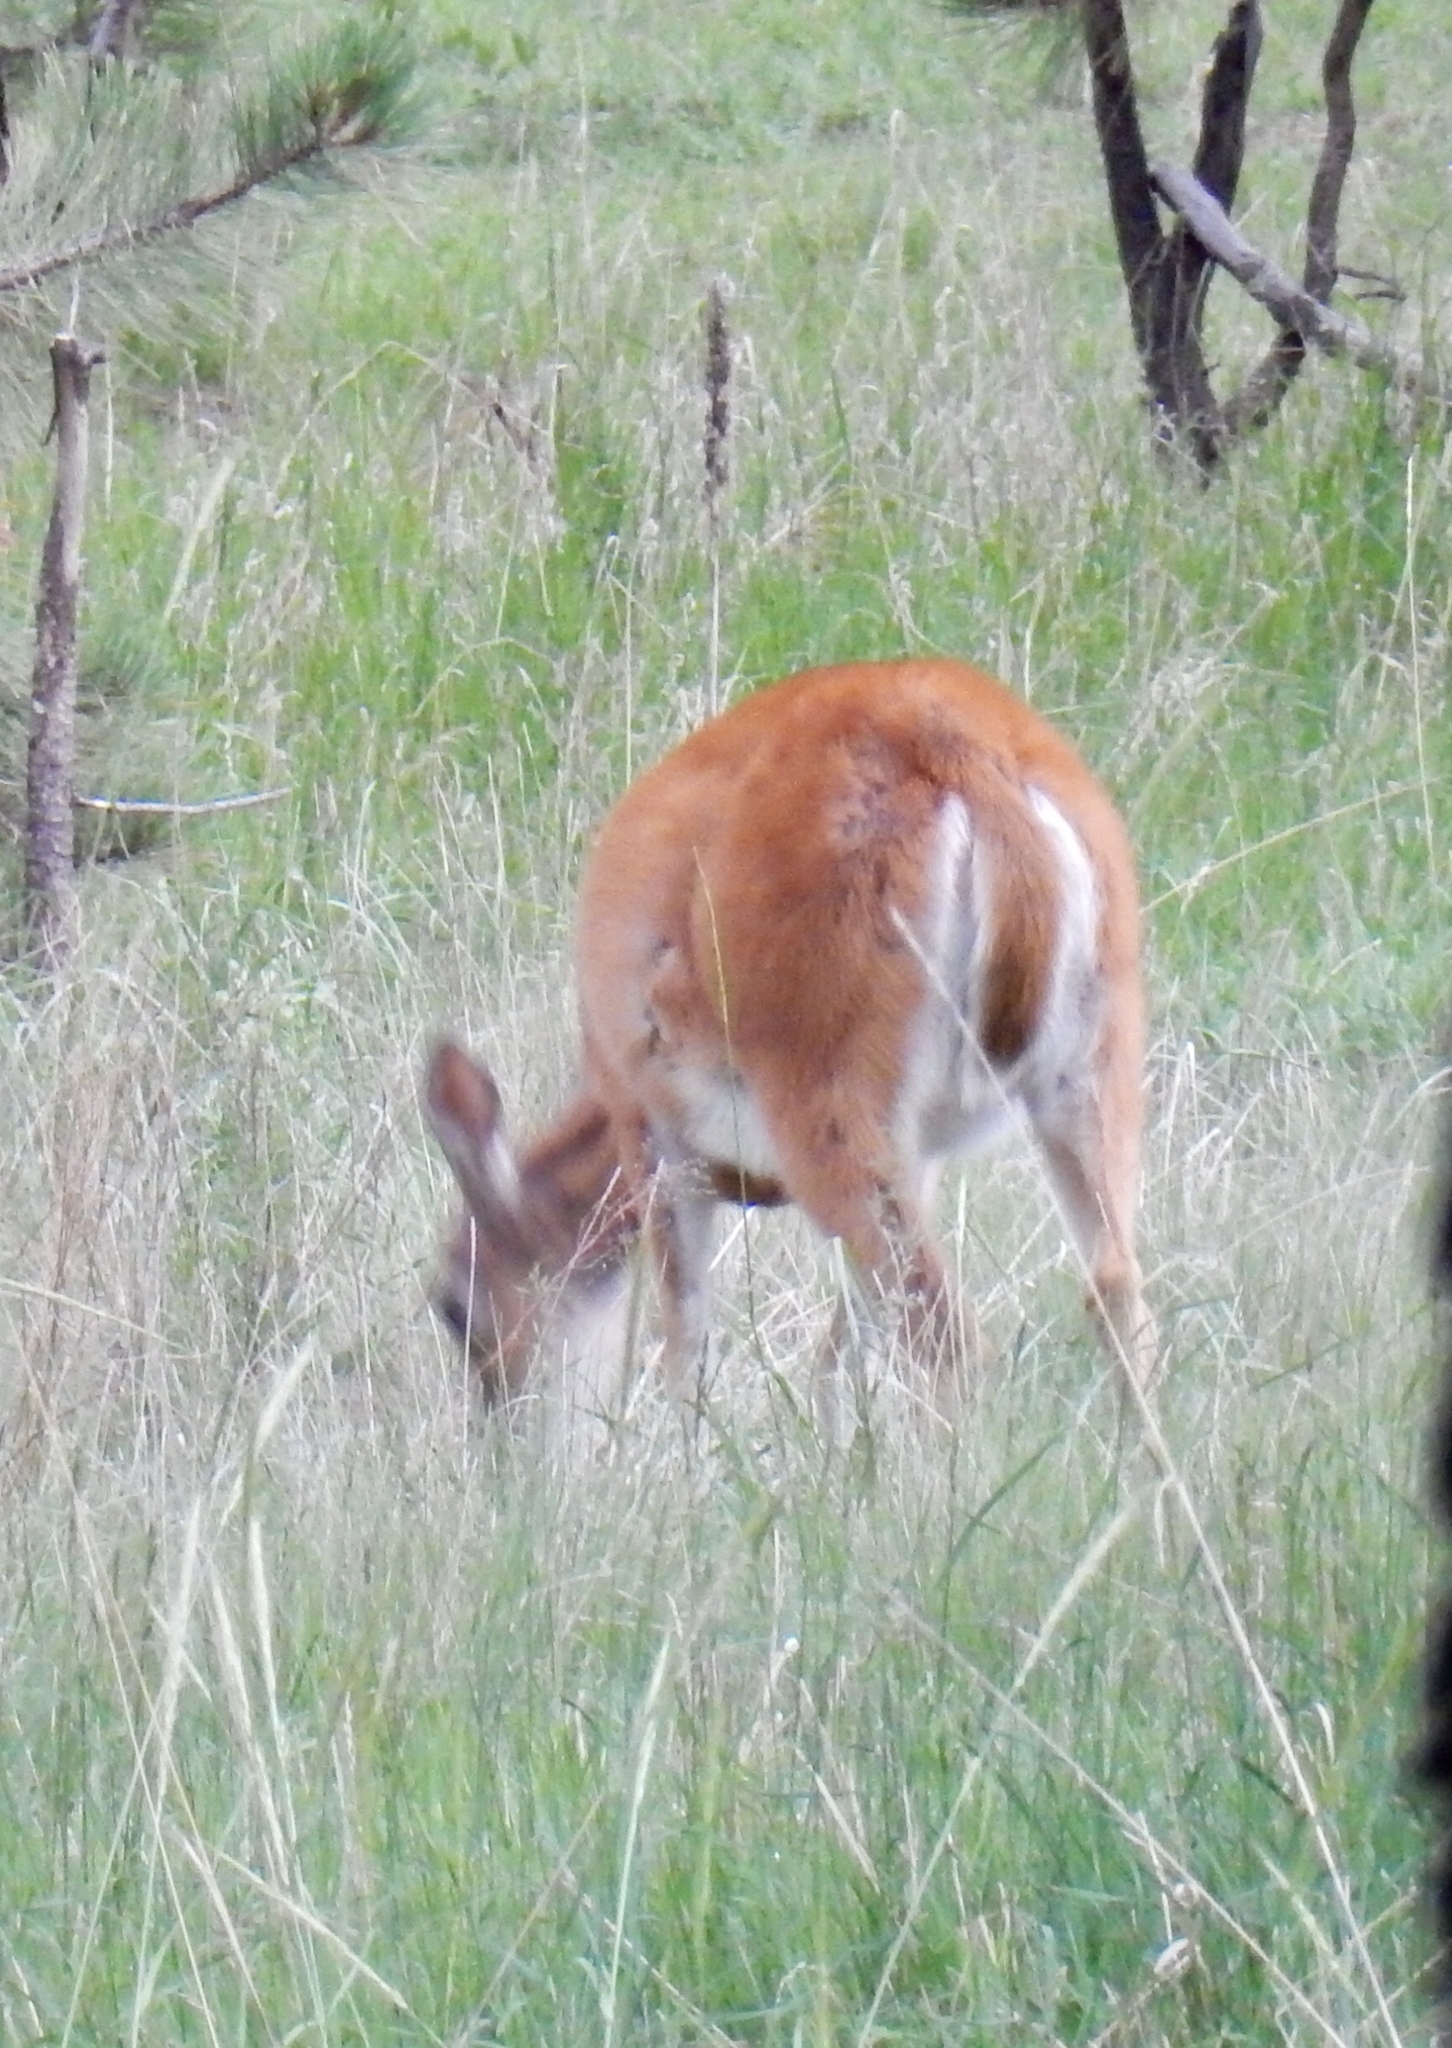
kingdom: Animalia
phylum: Chordata
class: Mammalia
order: Artiodactyla
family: Cervidae
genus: Odocoileus
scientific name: Odocoileus virginianus
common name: White-tailed deer
